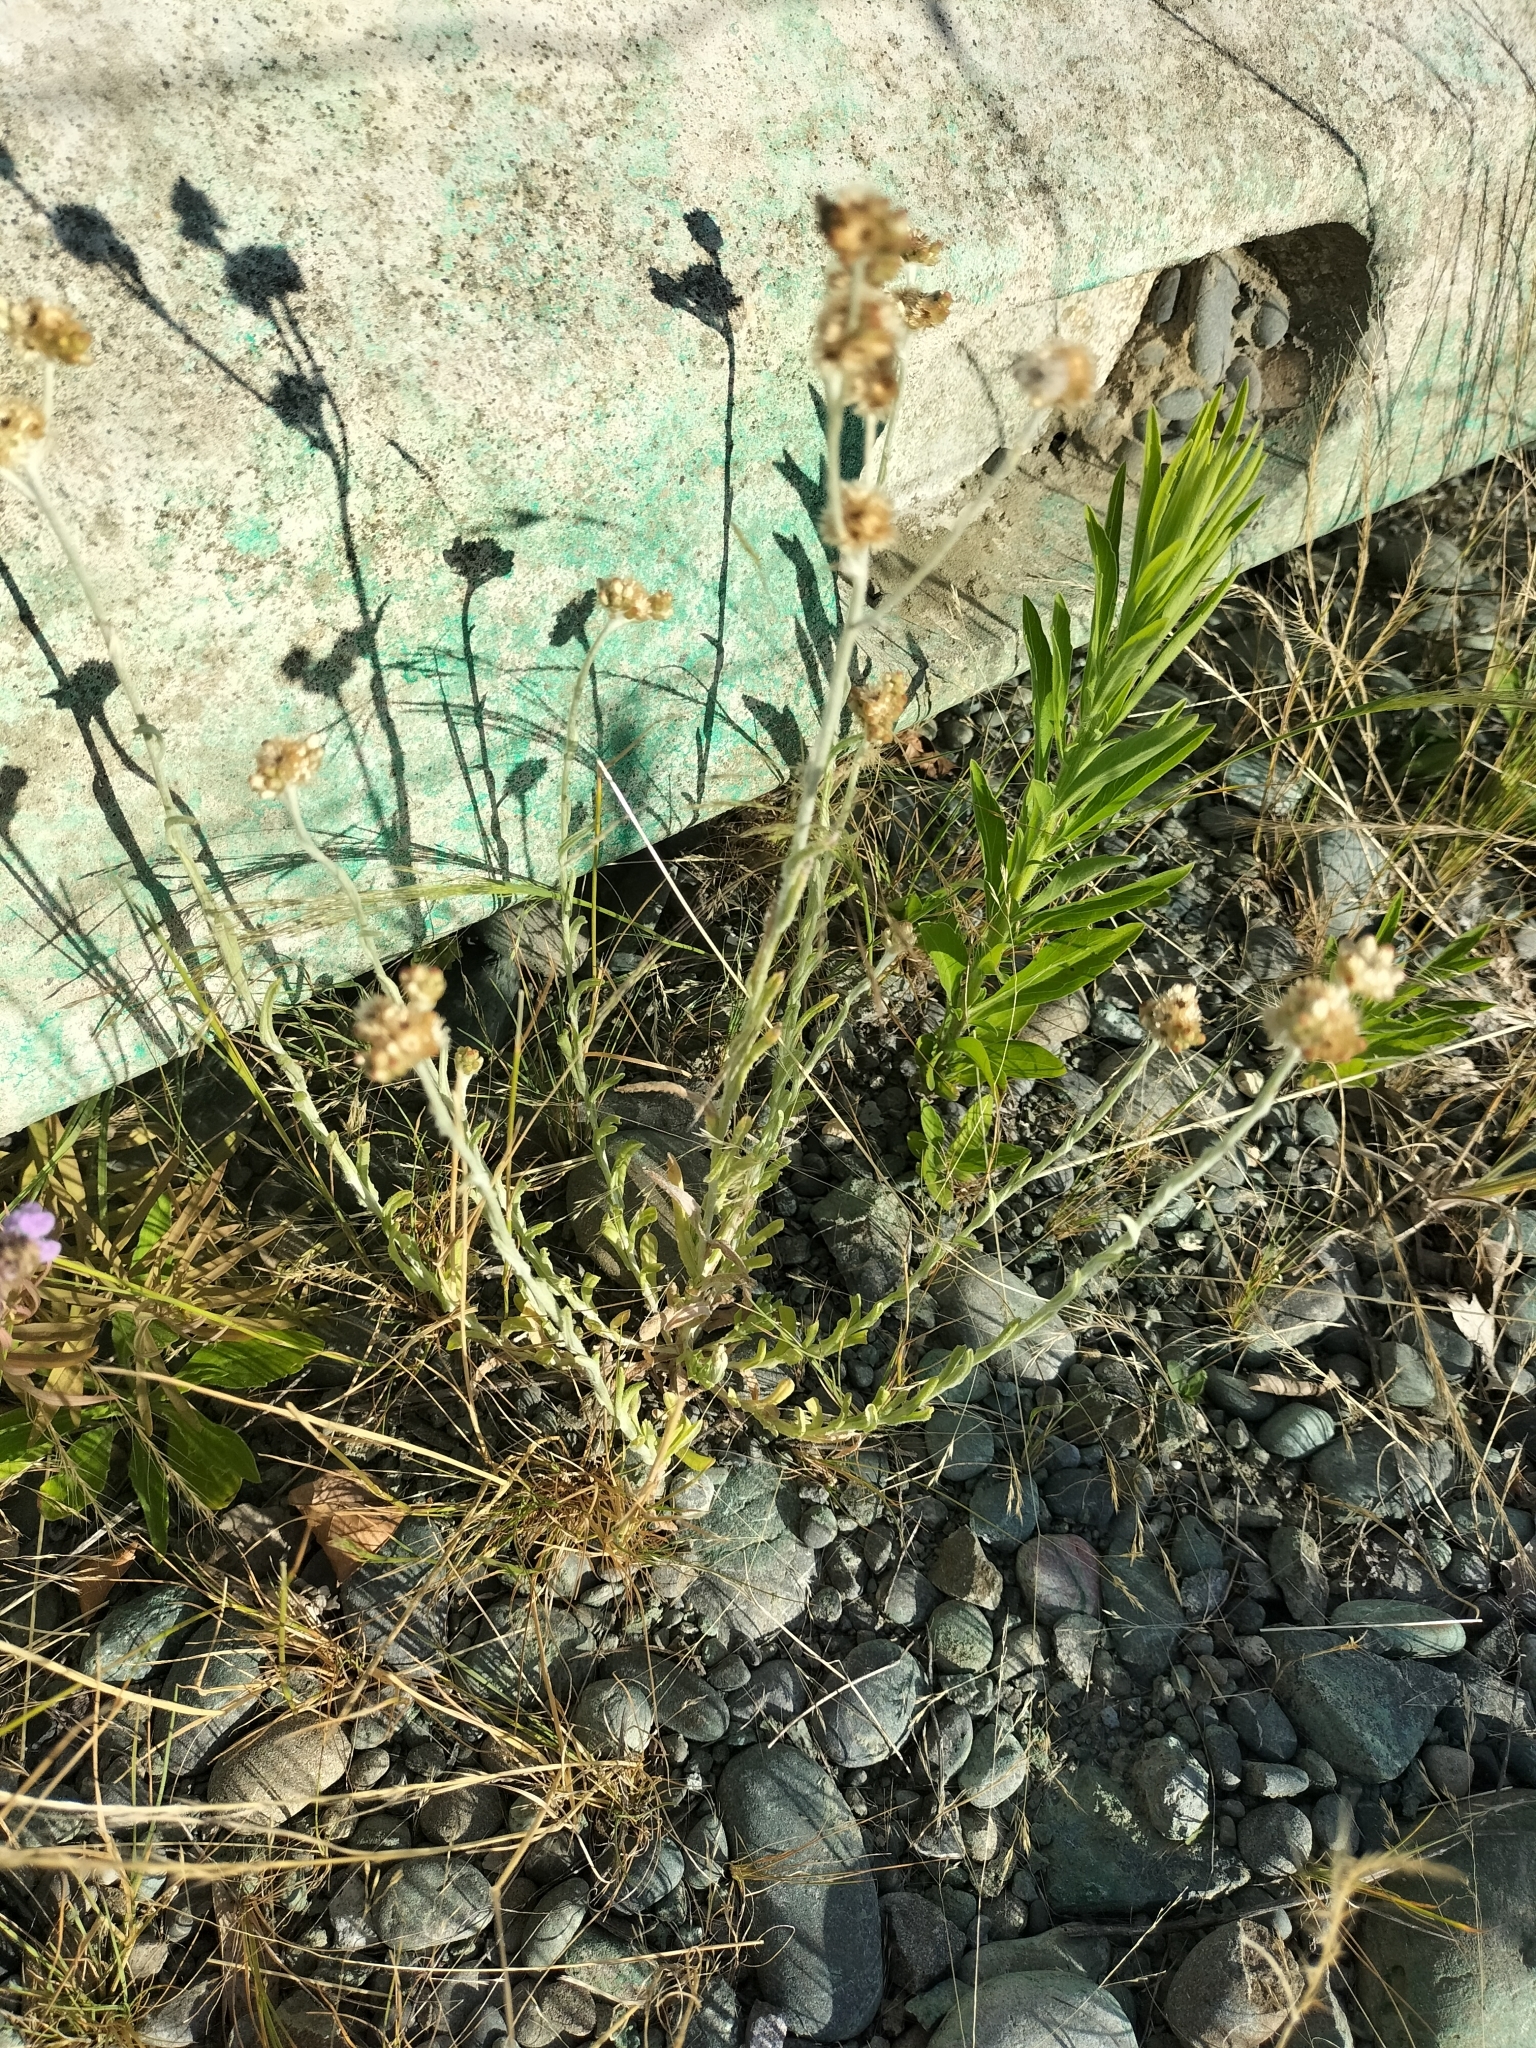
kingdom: Plantae
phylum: Tracheophyta
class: Magnoliopsida
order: Asterales
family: Asteraceae
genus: Helichrysum
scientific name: Helichrysum luteoalbum
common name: Daisy
